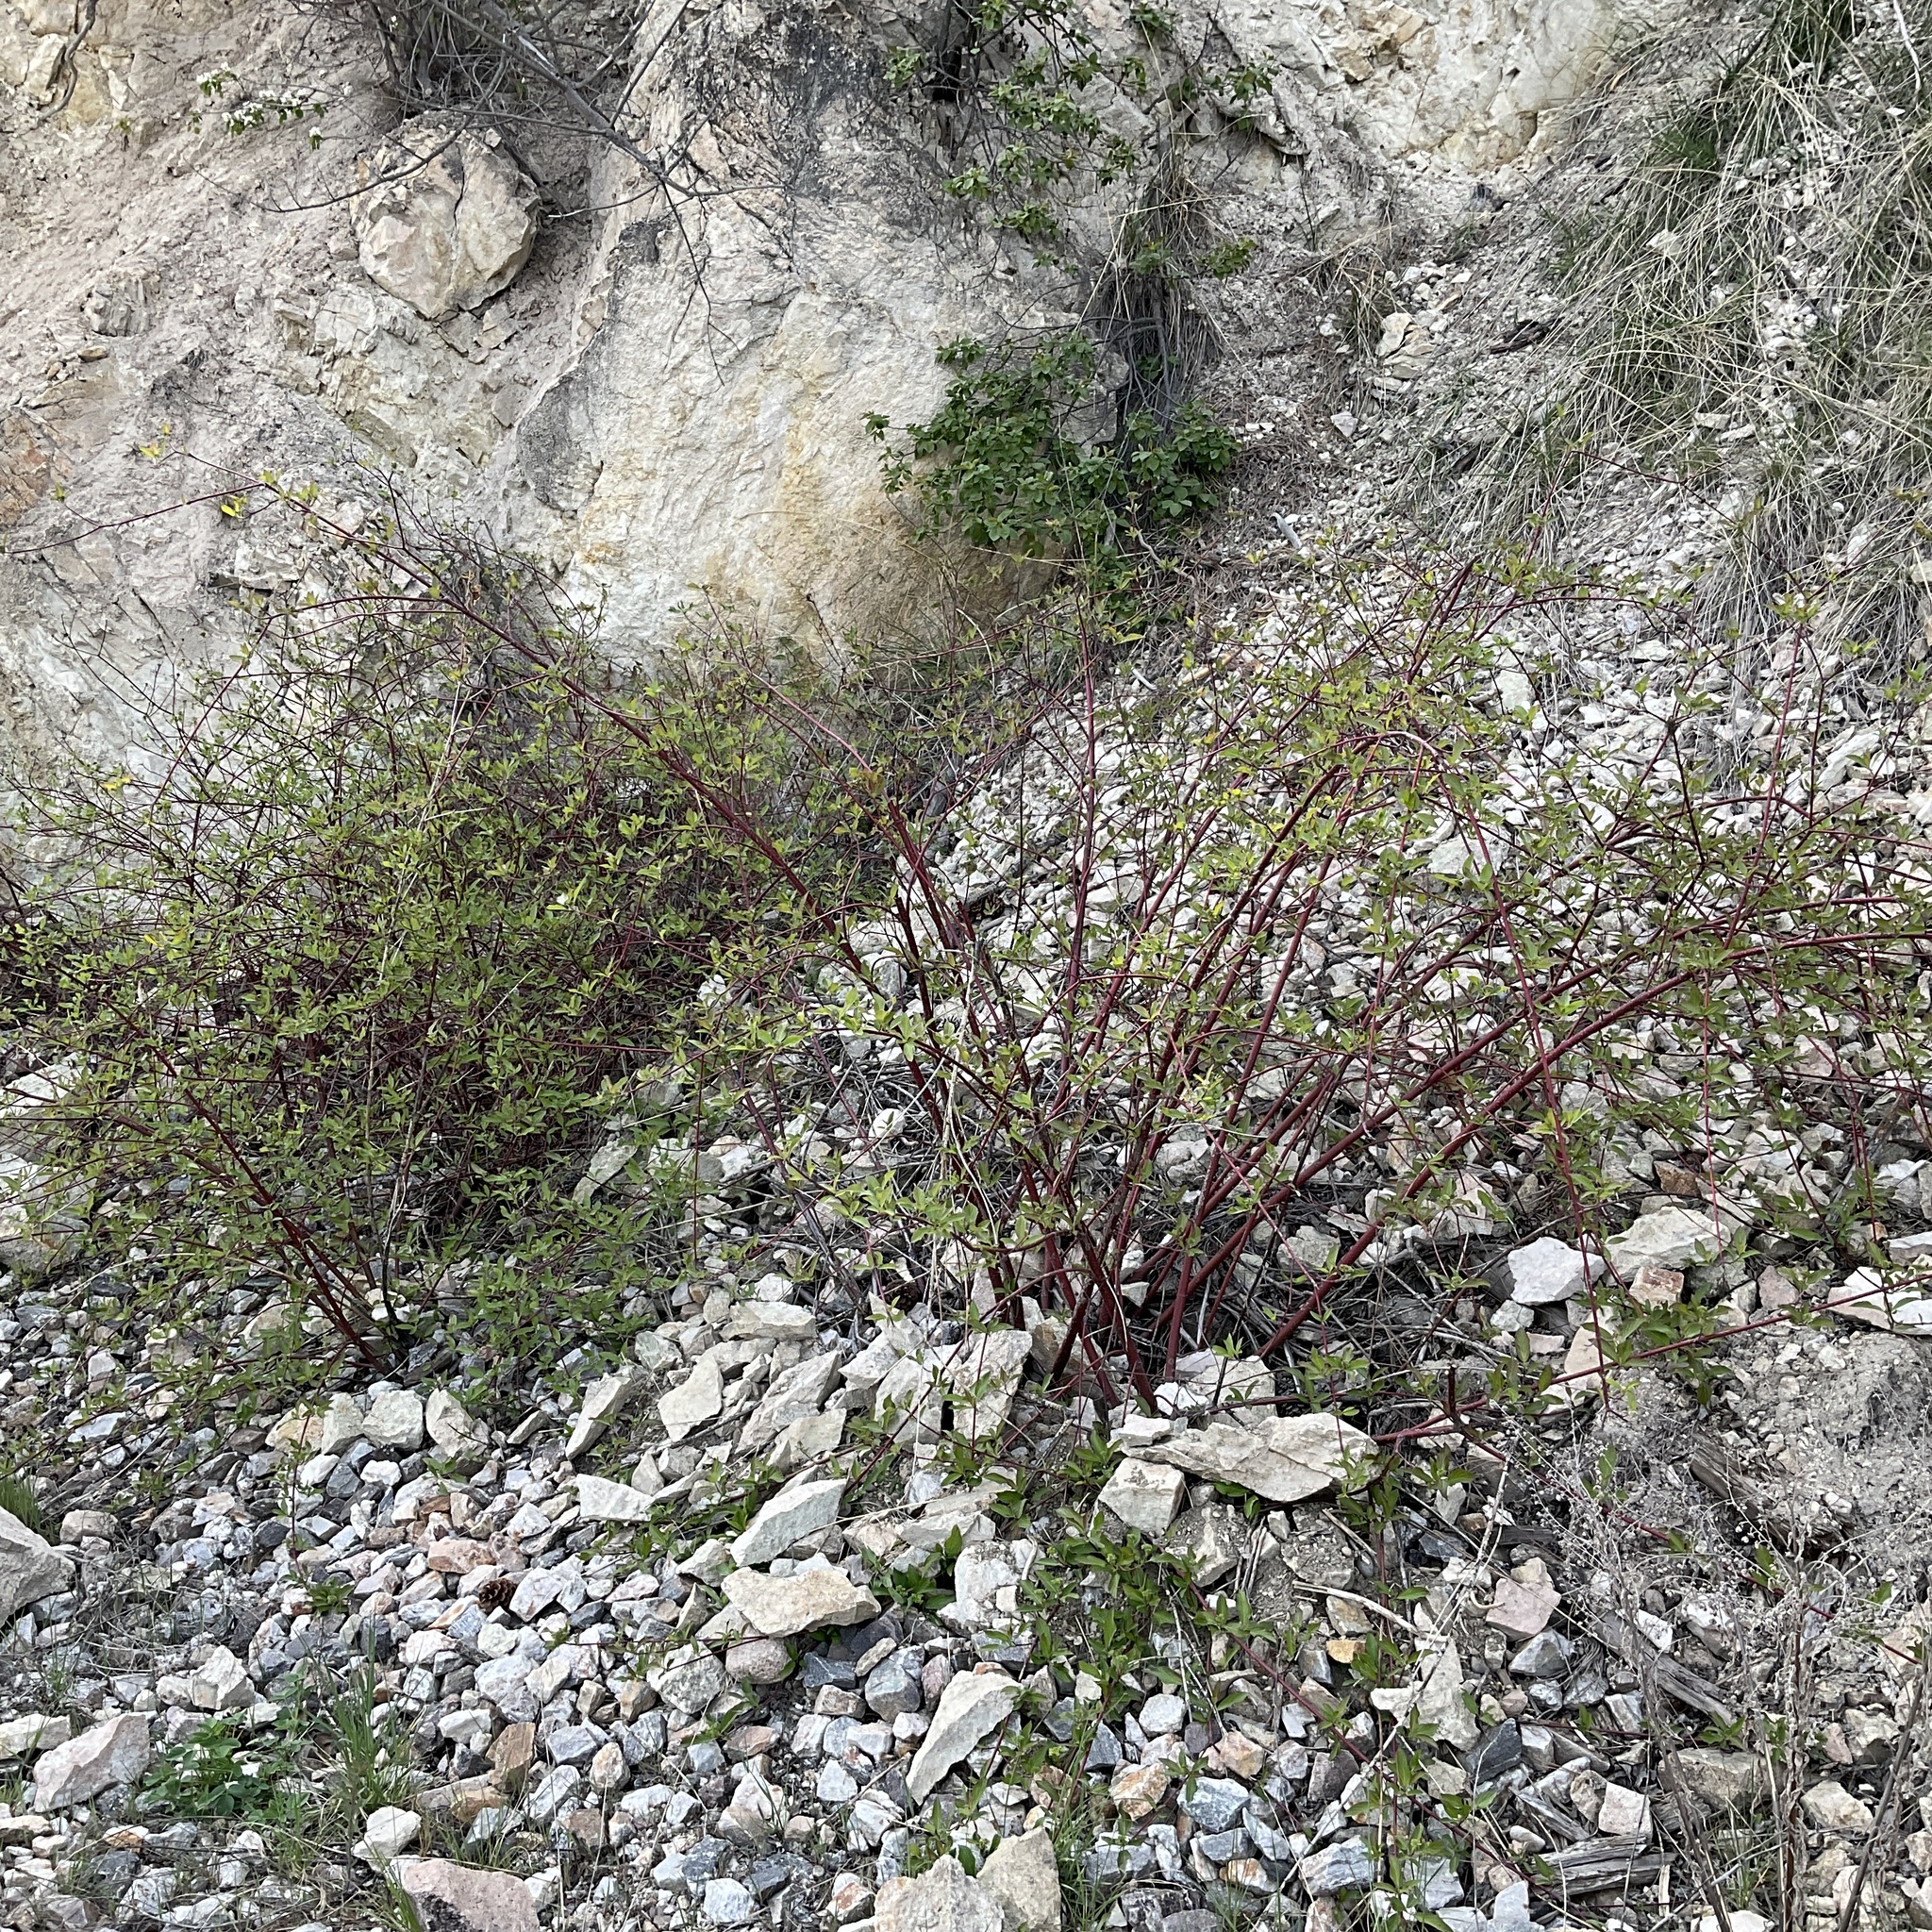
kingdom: Plantae
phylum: Tracheophyta
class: Magnoliopsida
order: Cornales
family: Cornaceae
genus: Cornus
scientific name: Cornus sericea
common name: Red-osier dogwood
